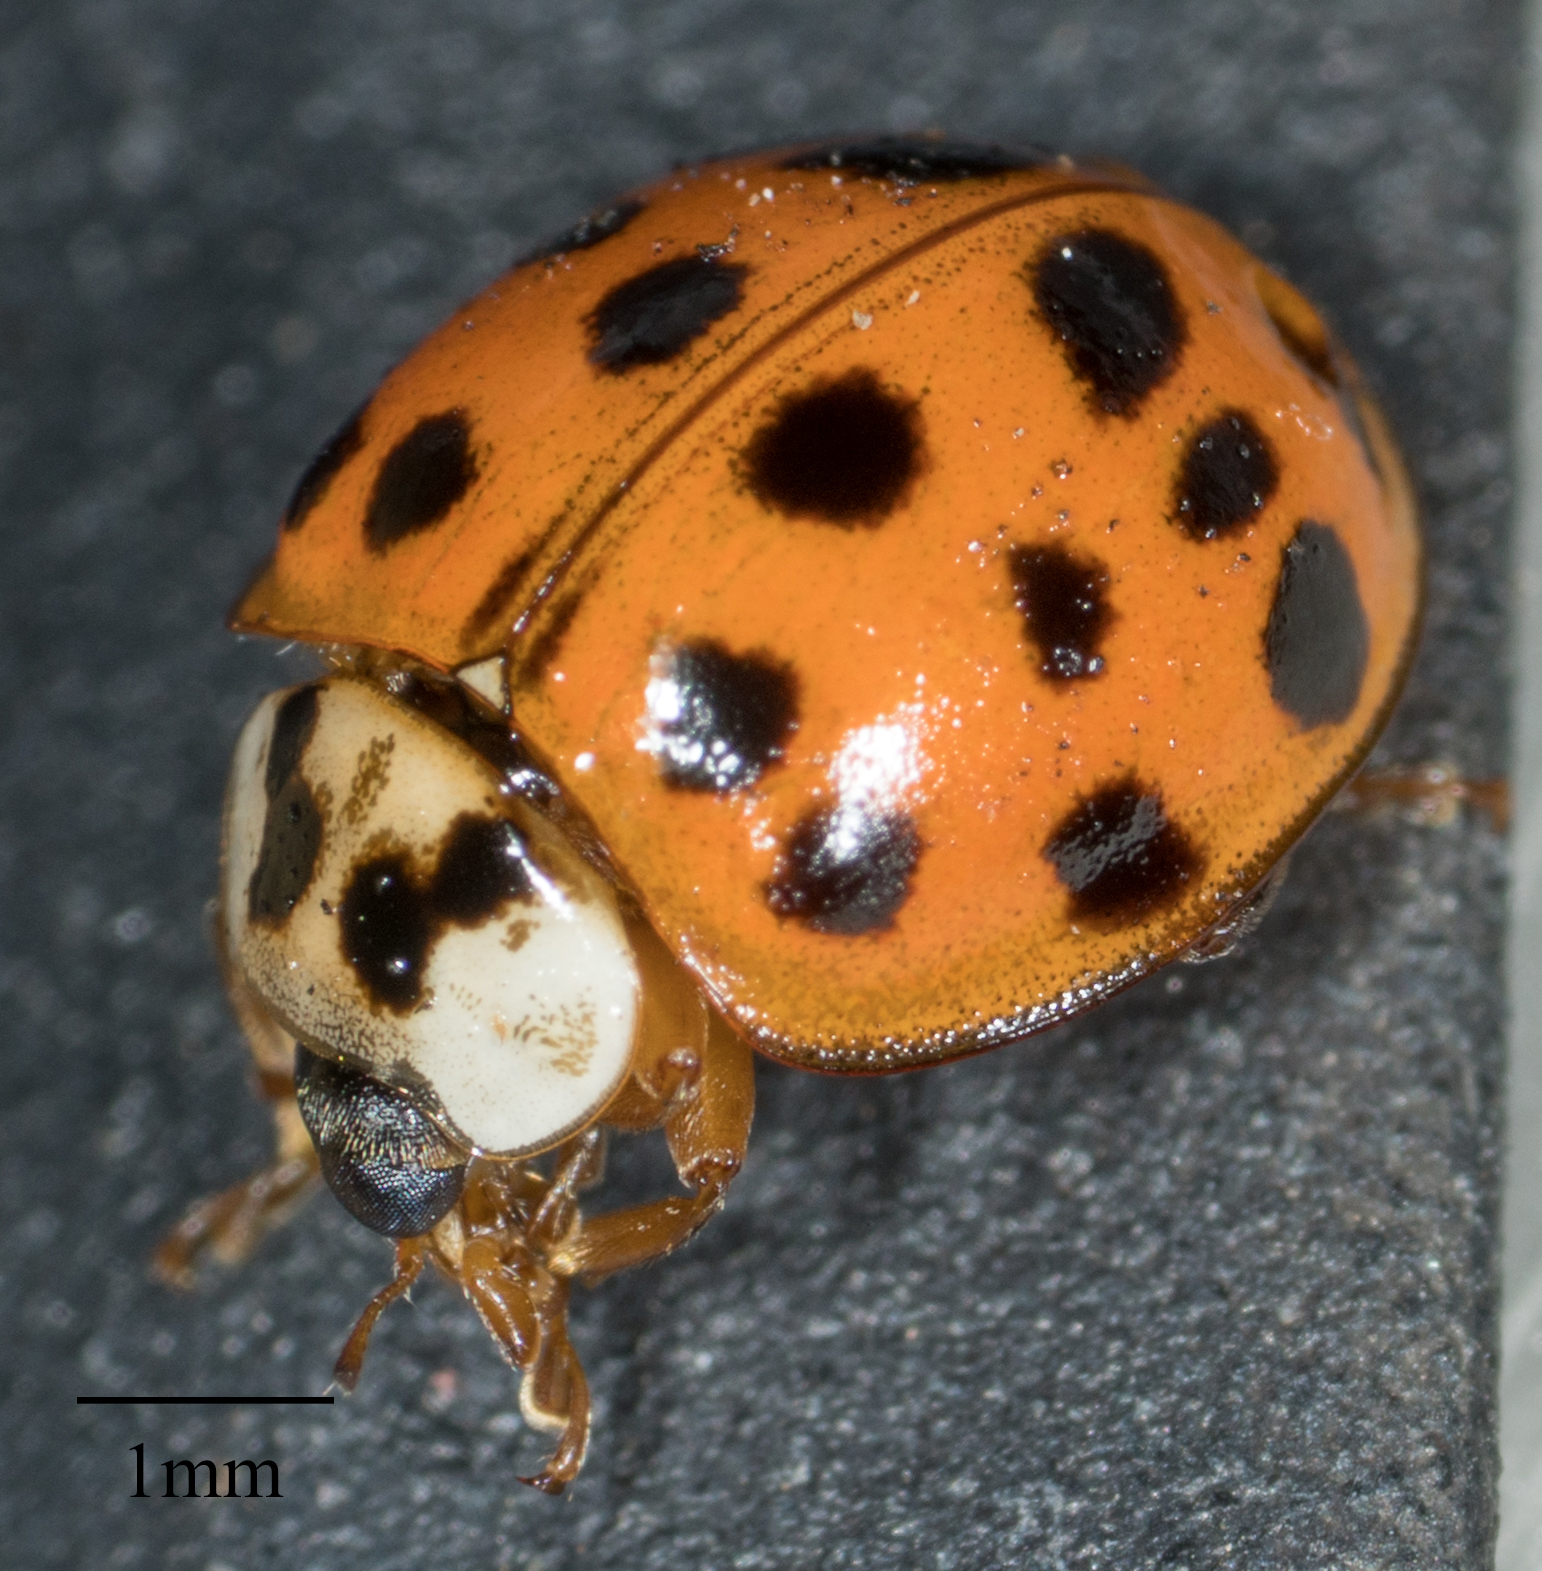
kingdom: Animalia
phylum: Arthropoda
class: Insecta
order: Coleoptera
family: Coccinellidae
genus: Harmonia
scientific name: Harmonia axyridis
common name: Harlequin ladybird
